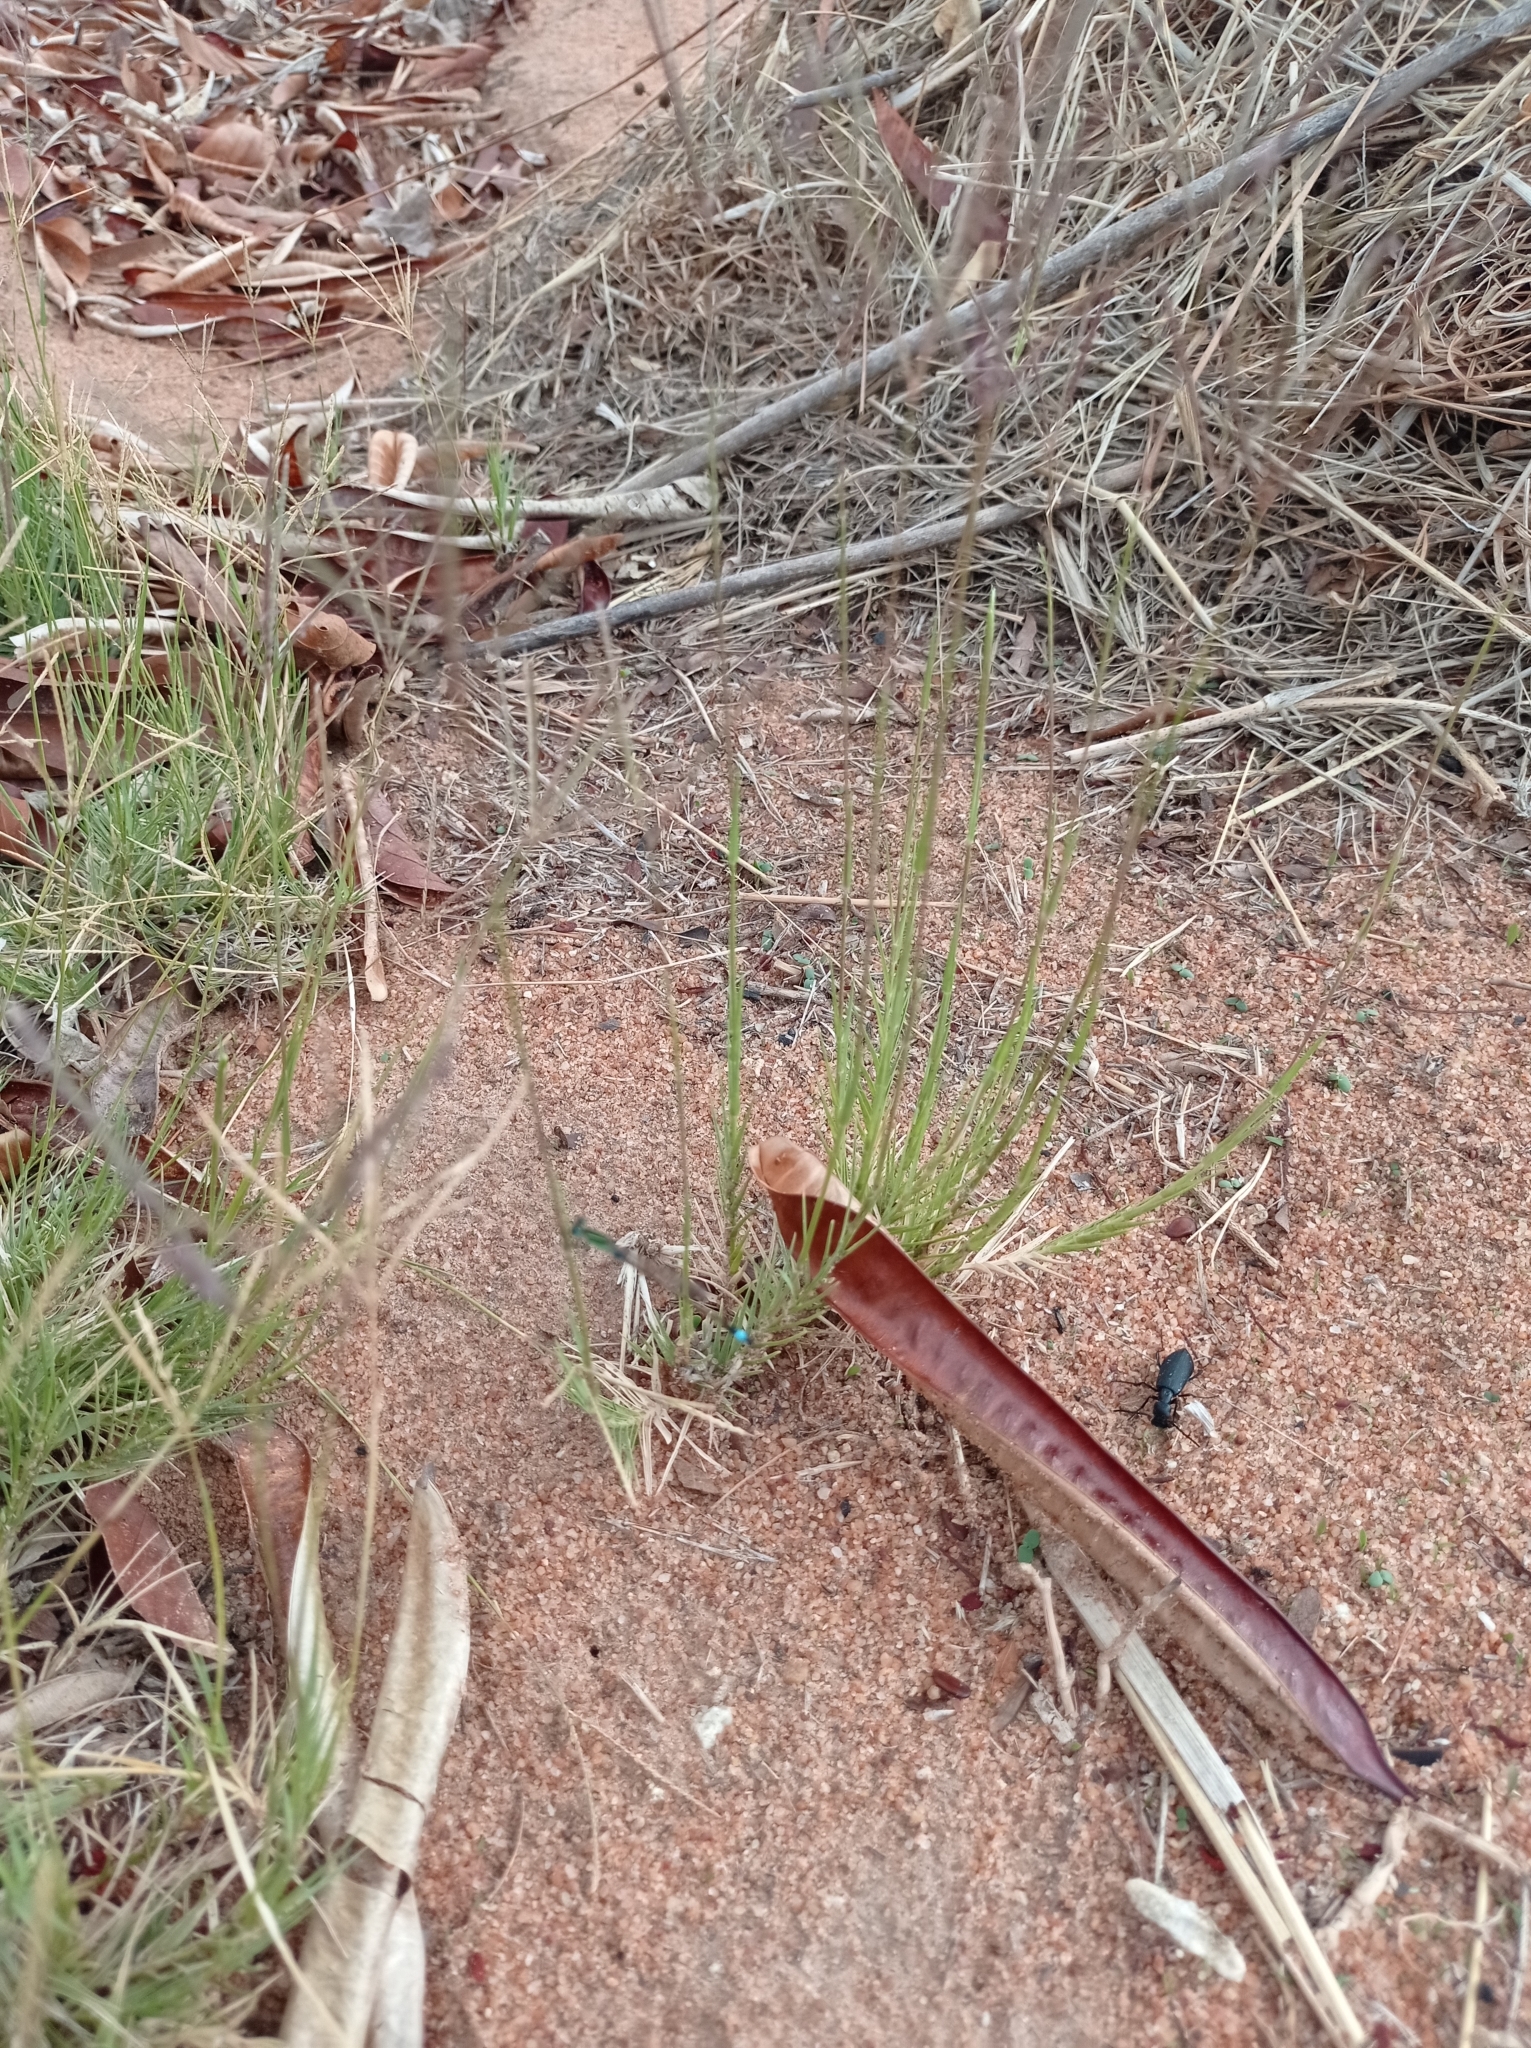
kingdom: Animalia
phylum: Arthropoda
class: Insecta
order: Odonata
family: Coenagrionidae
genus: Ischnura
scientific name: Ischnura senegalensis
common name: Tropical bluetail
